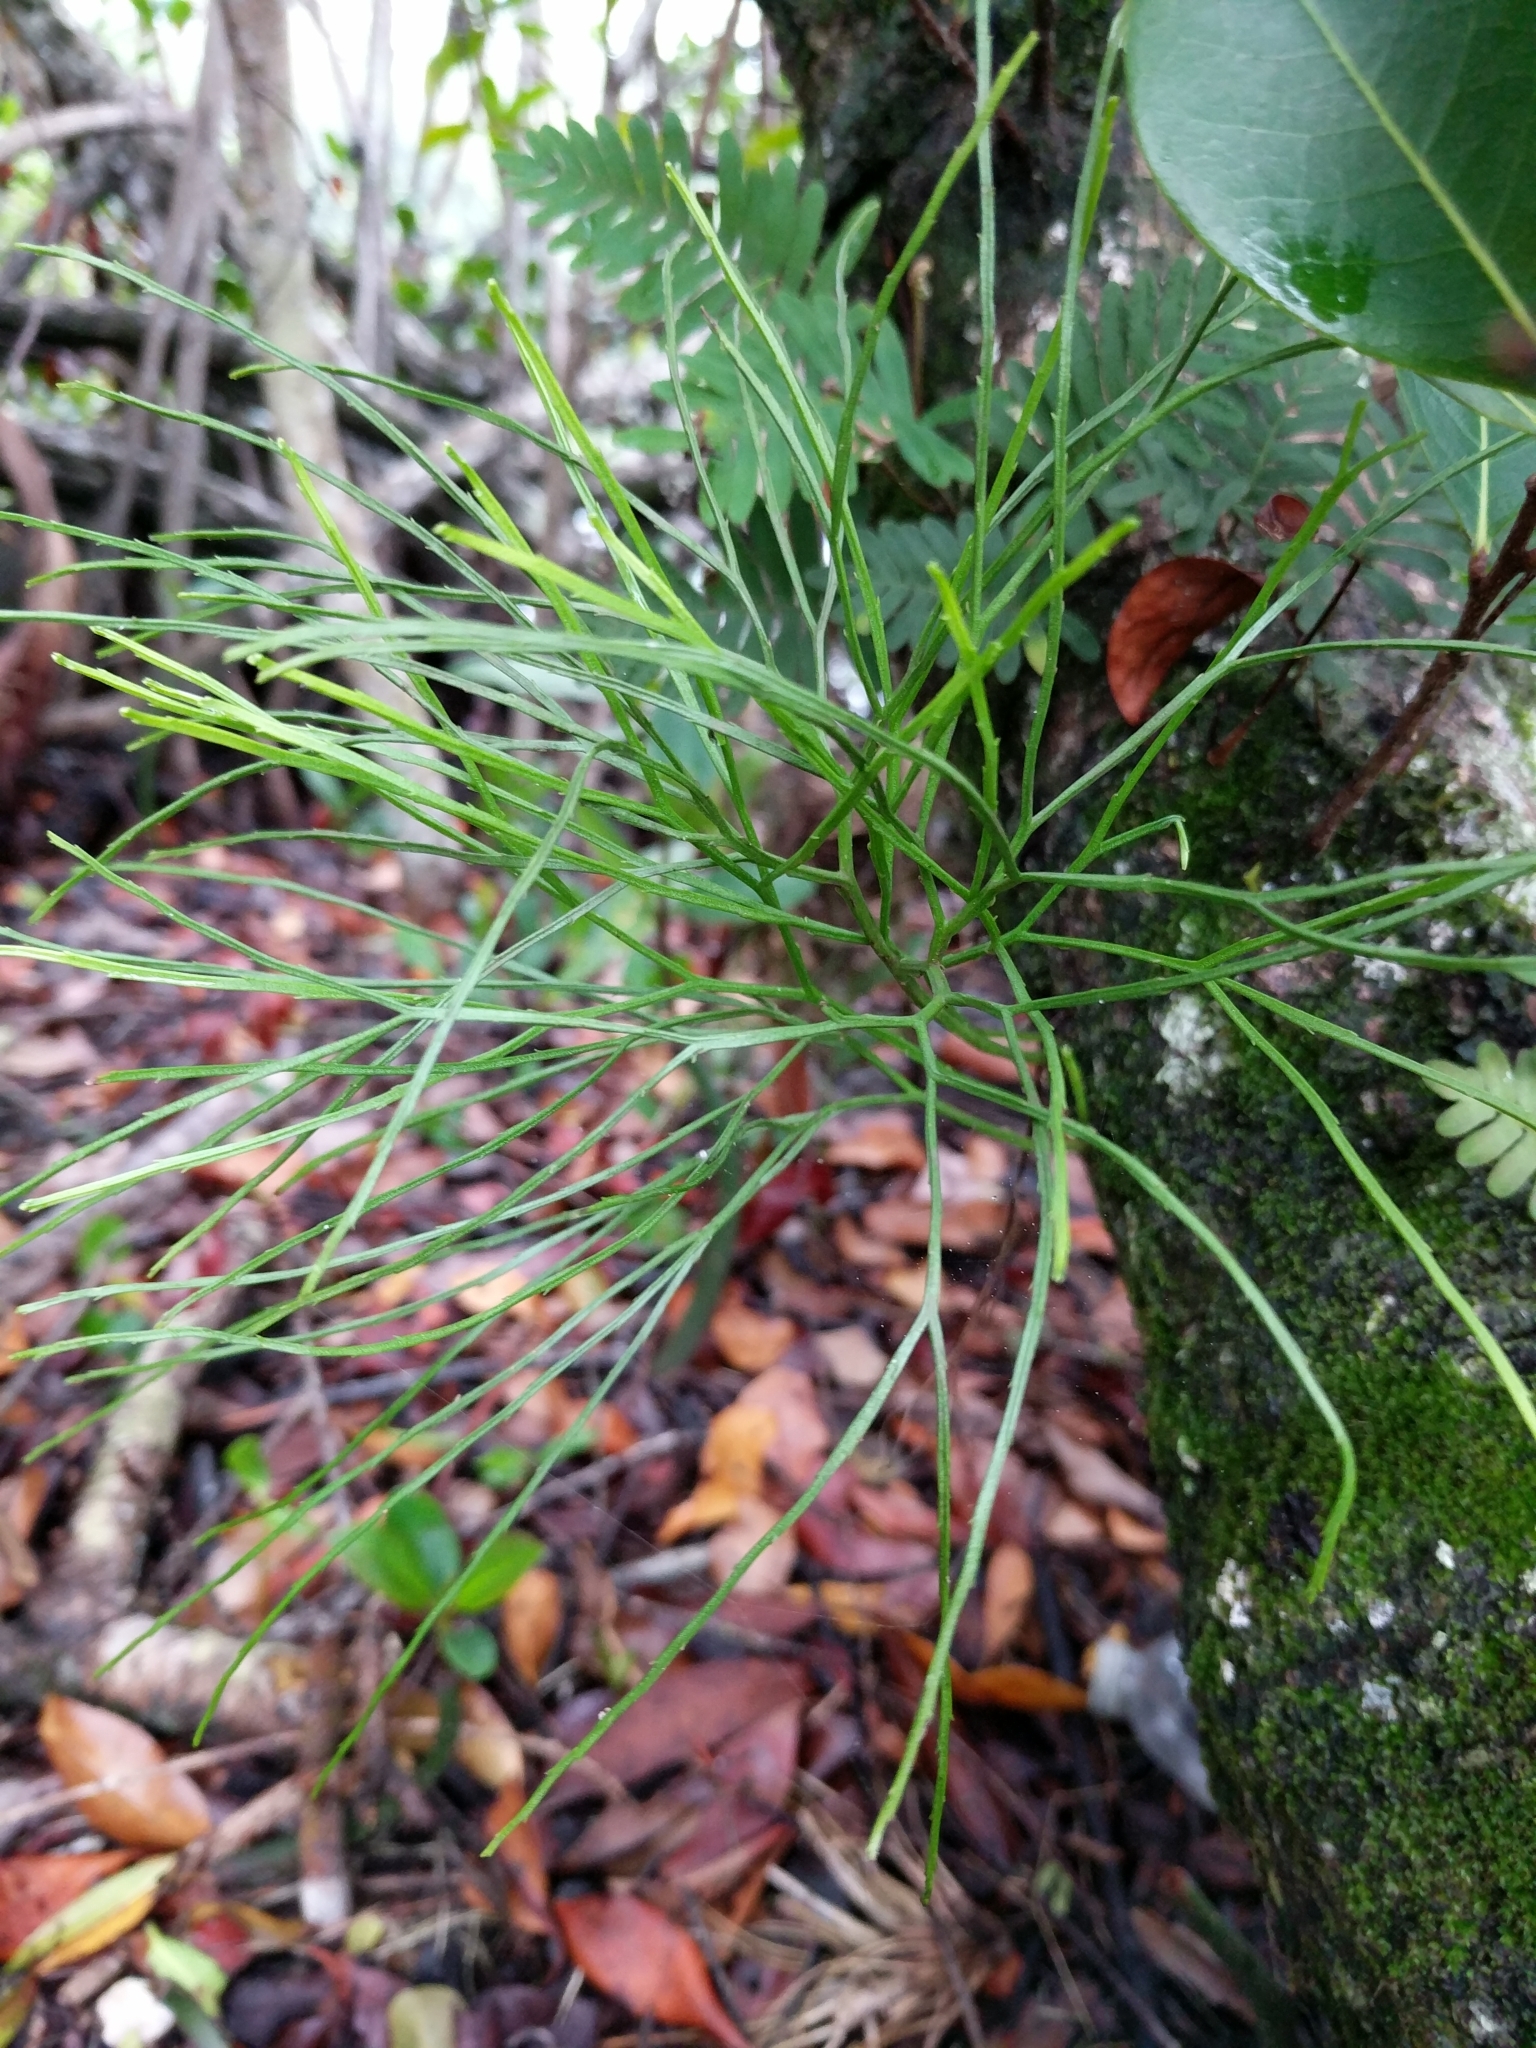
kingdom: Plantae
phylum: Tracheophyta
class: Polypodiopsida
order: Psilotales
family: Psilotaceae
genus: Psilotum
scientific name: Psilotum nudum
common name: Skeleton fork fern
